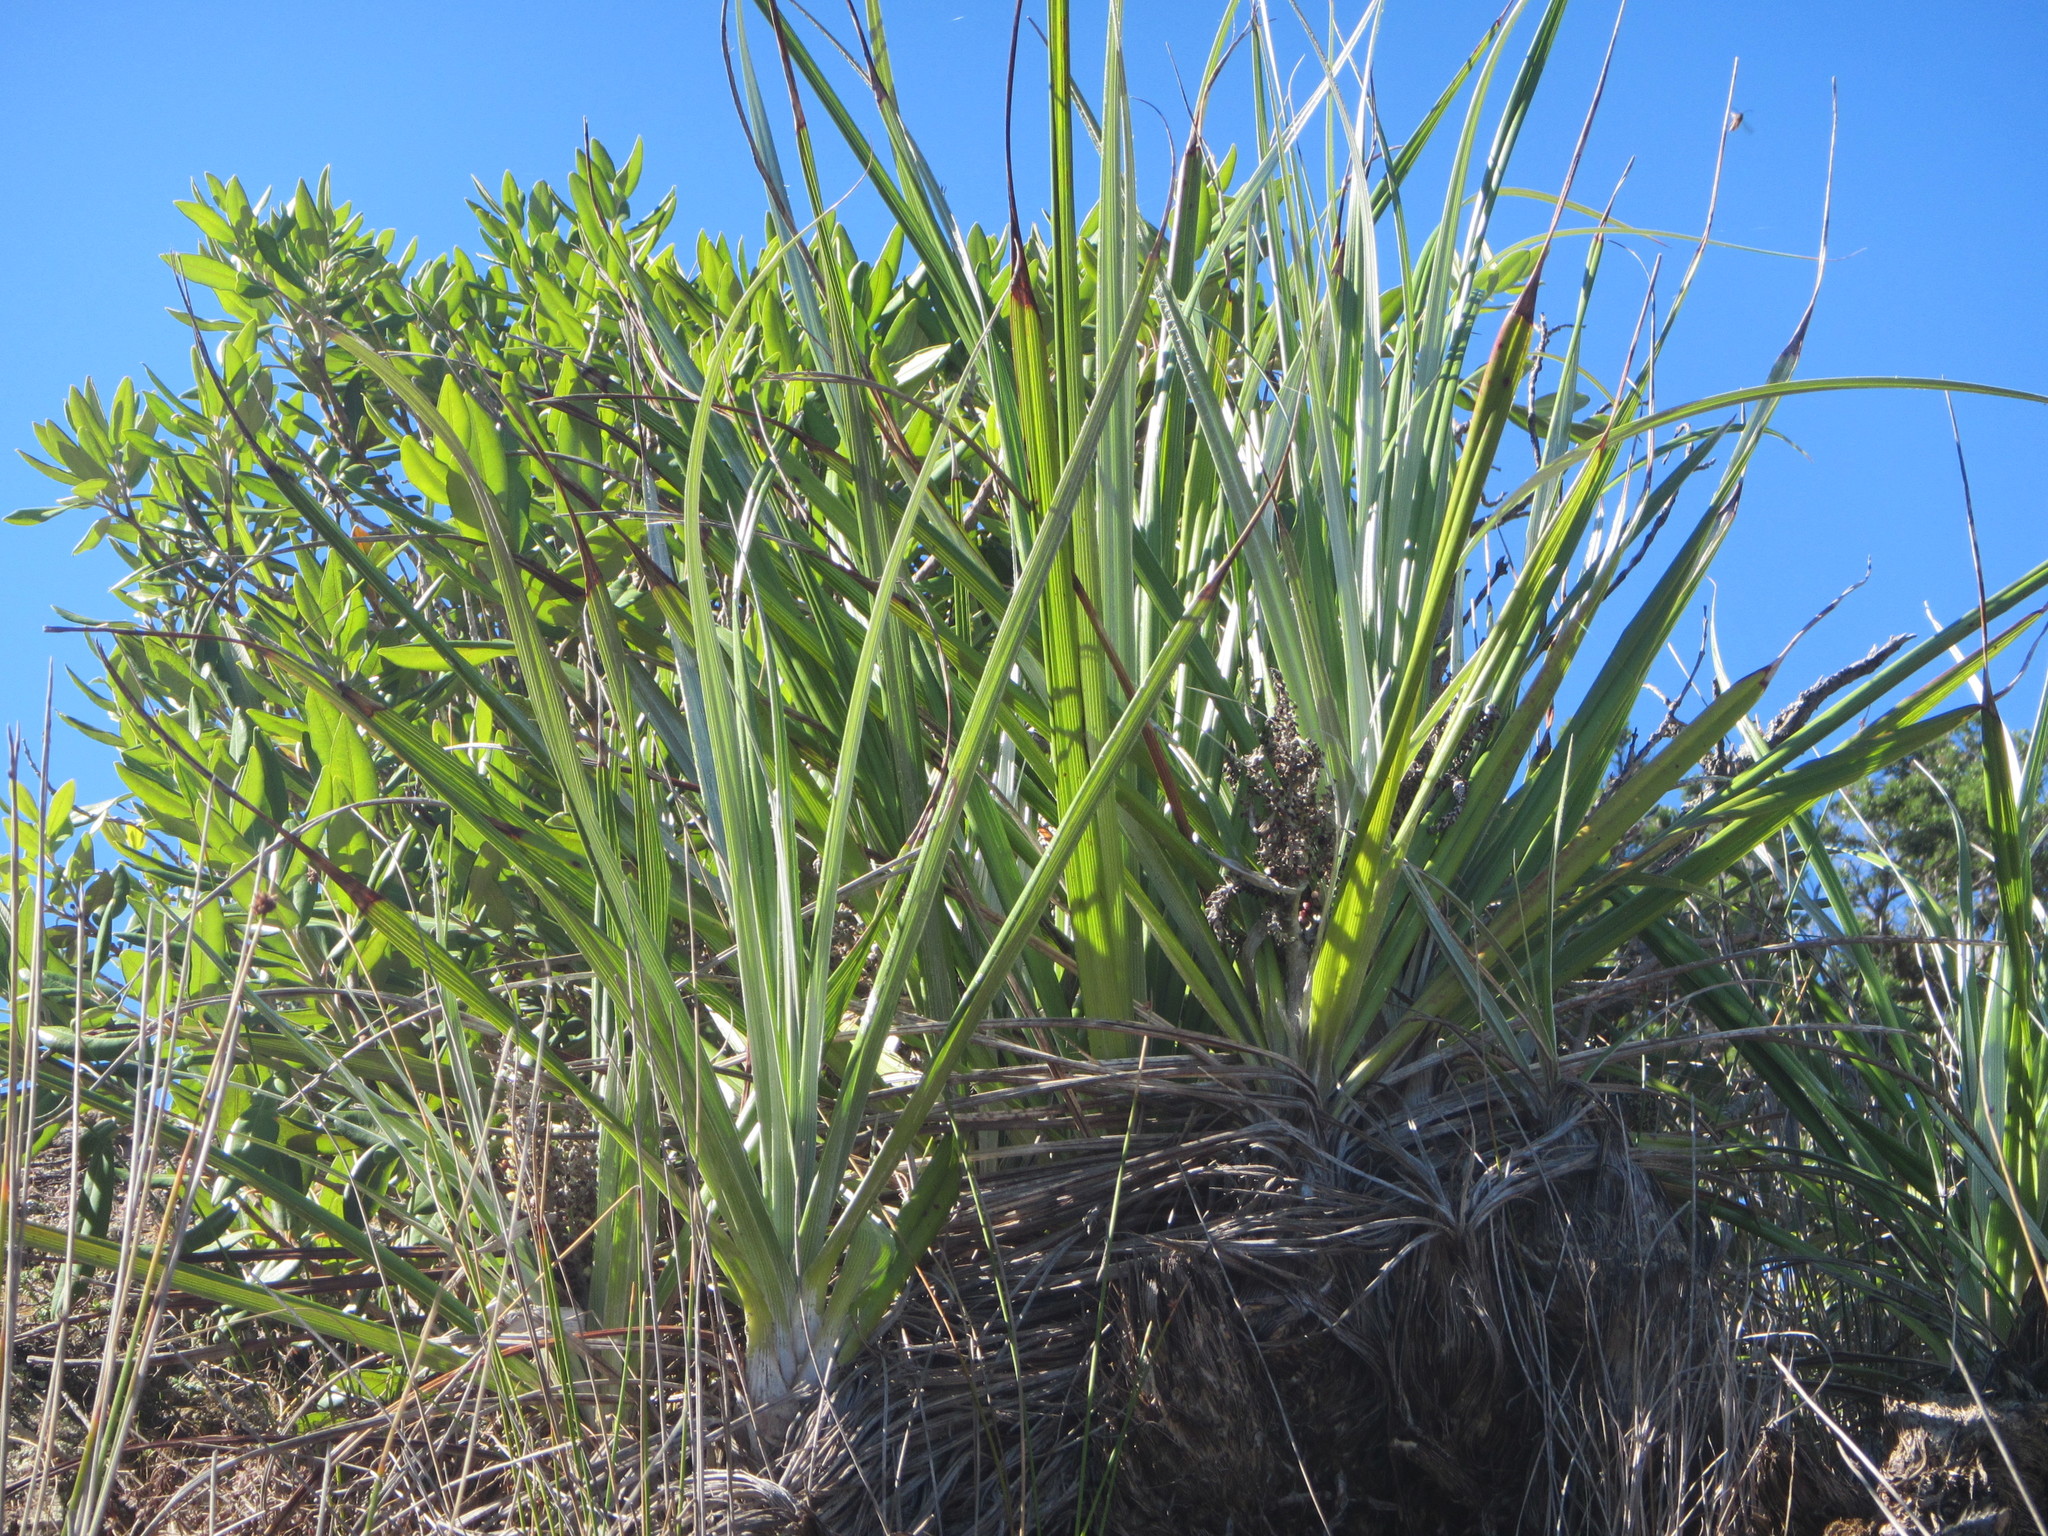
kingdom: Plantae
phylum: Tracheophyta
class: Liliopsida
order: Asparagales
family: Asteliaceae
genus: Astelia
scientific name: Astelia banksii
